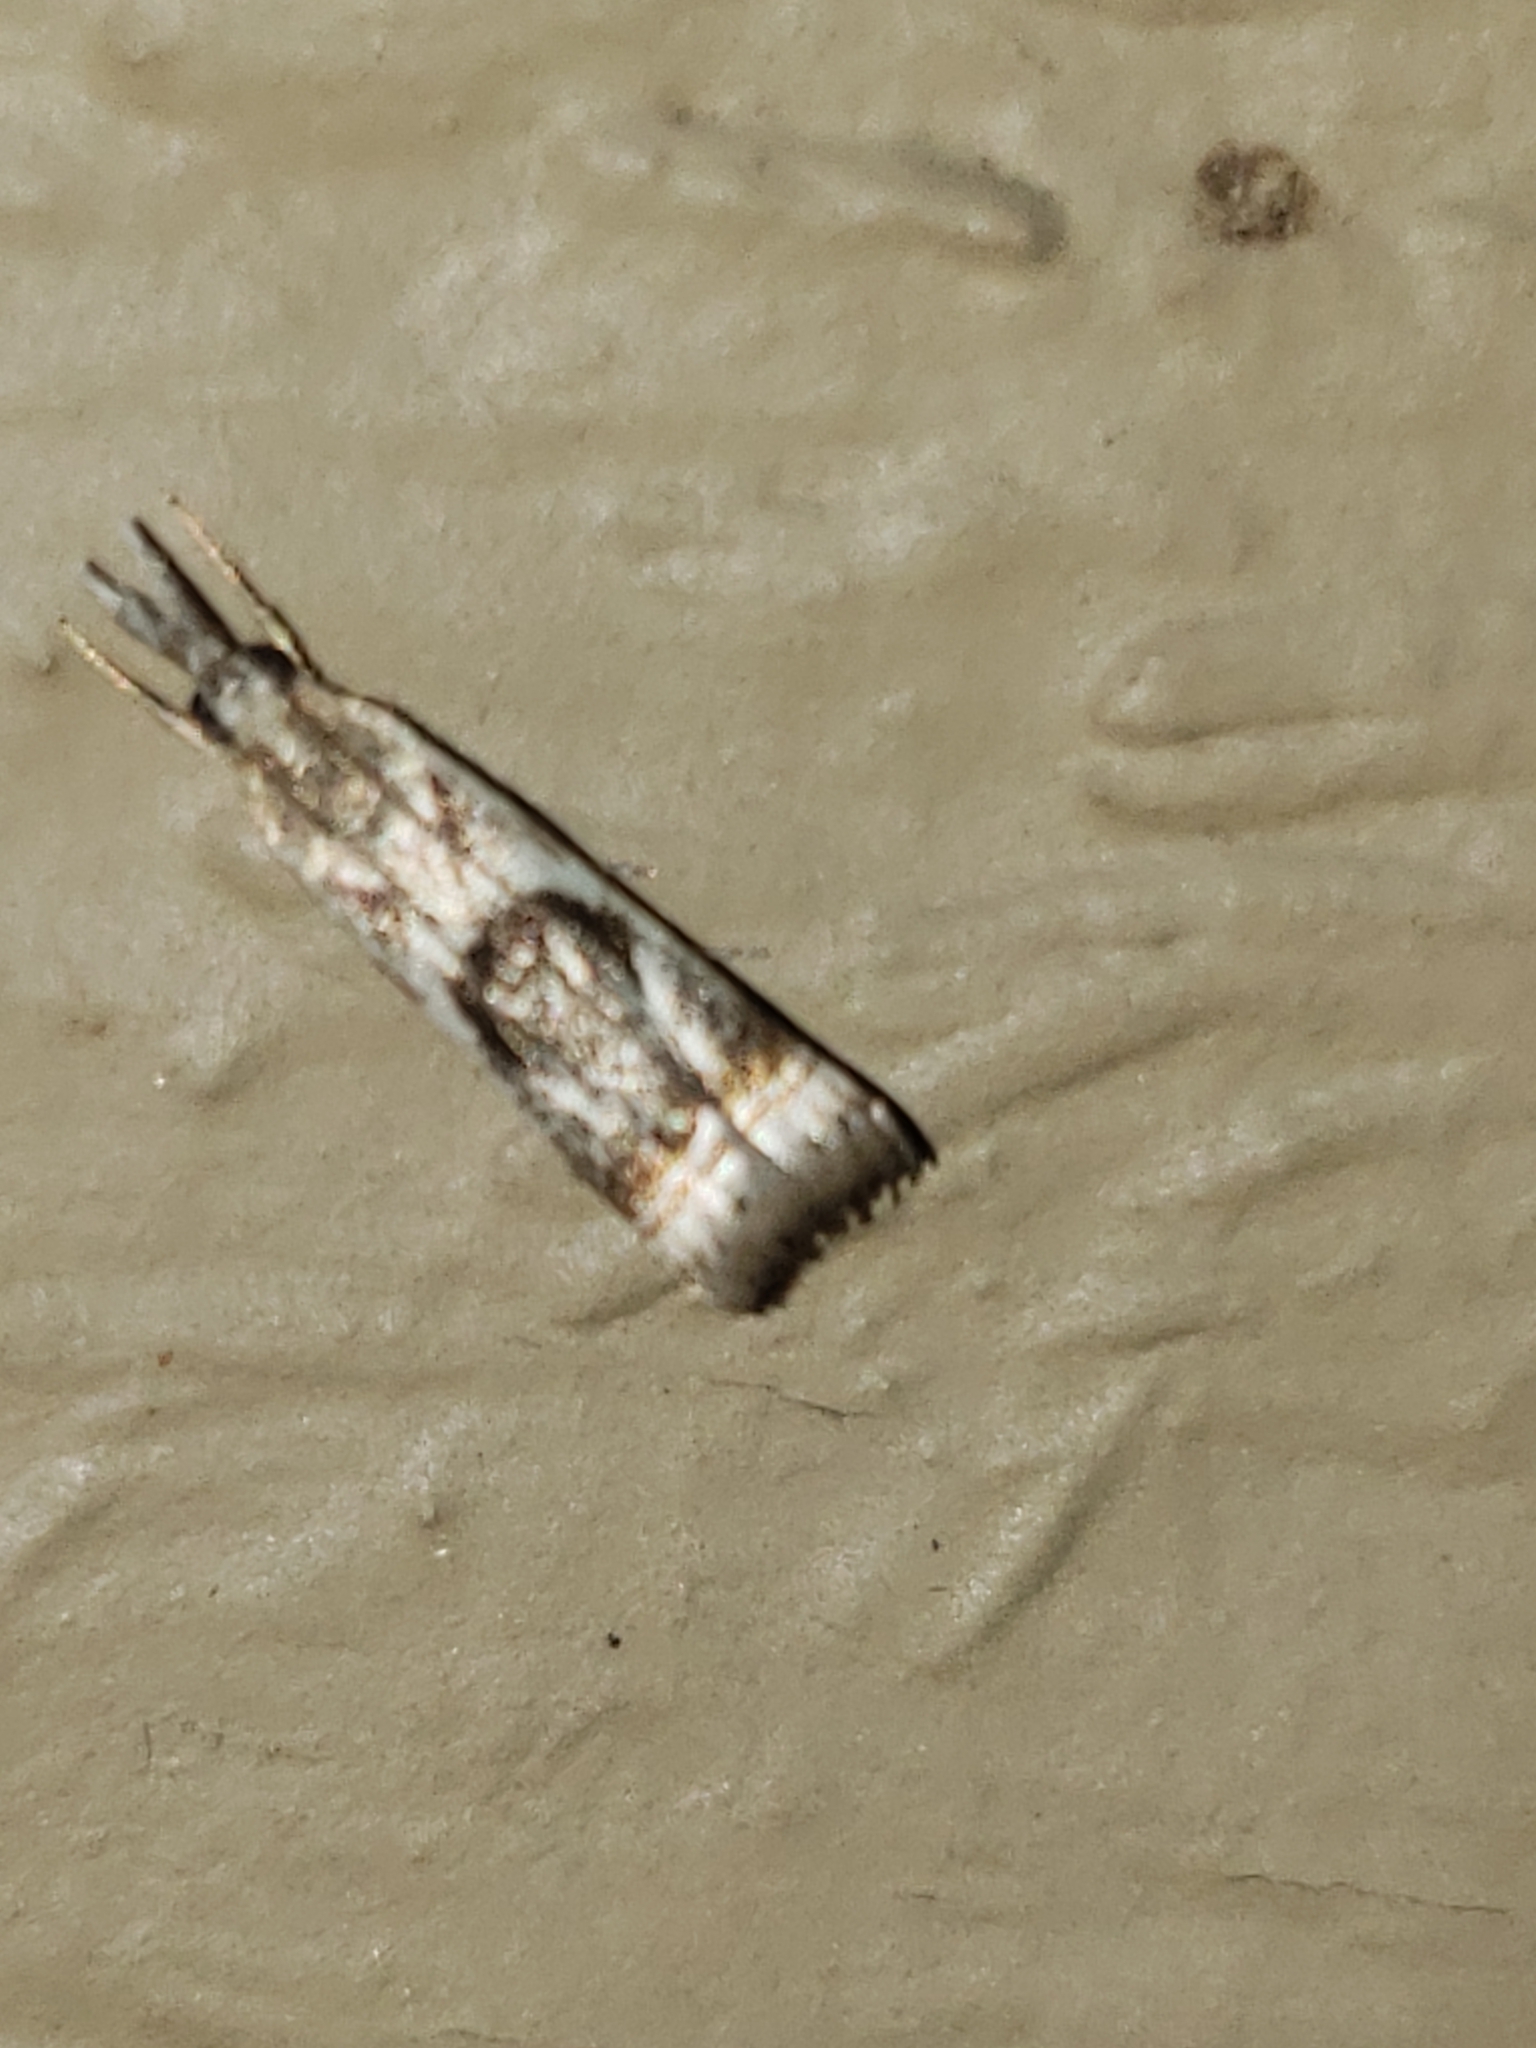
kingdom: Animalia
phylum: Arthropoda
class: Insecta
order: Lepidoptera
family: Crambidae
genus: Microcrambus
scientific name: Microcrambus elegans
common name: Elegant grass-veneer
